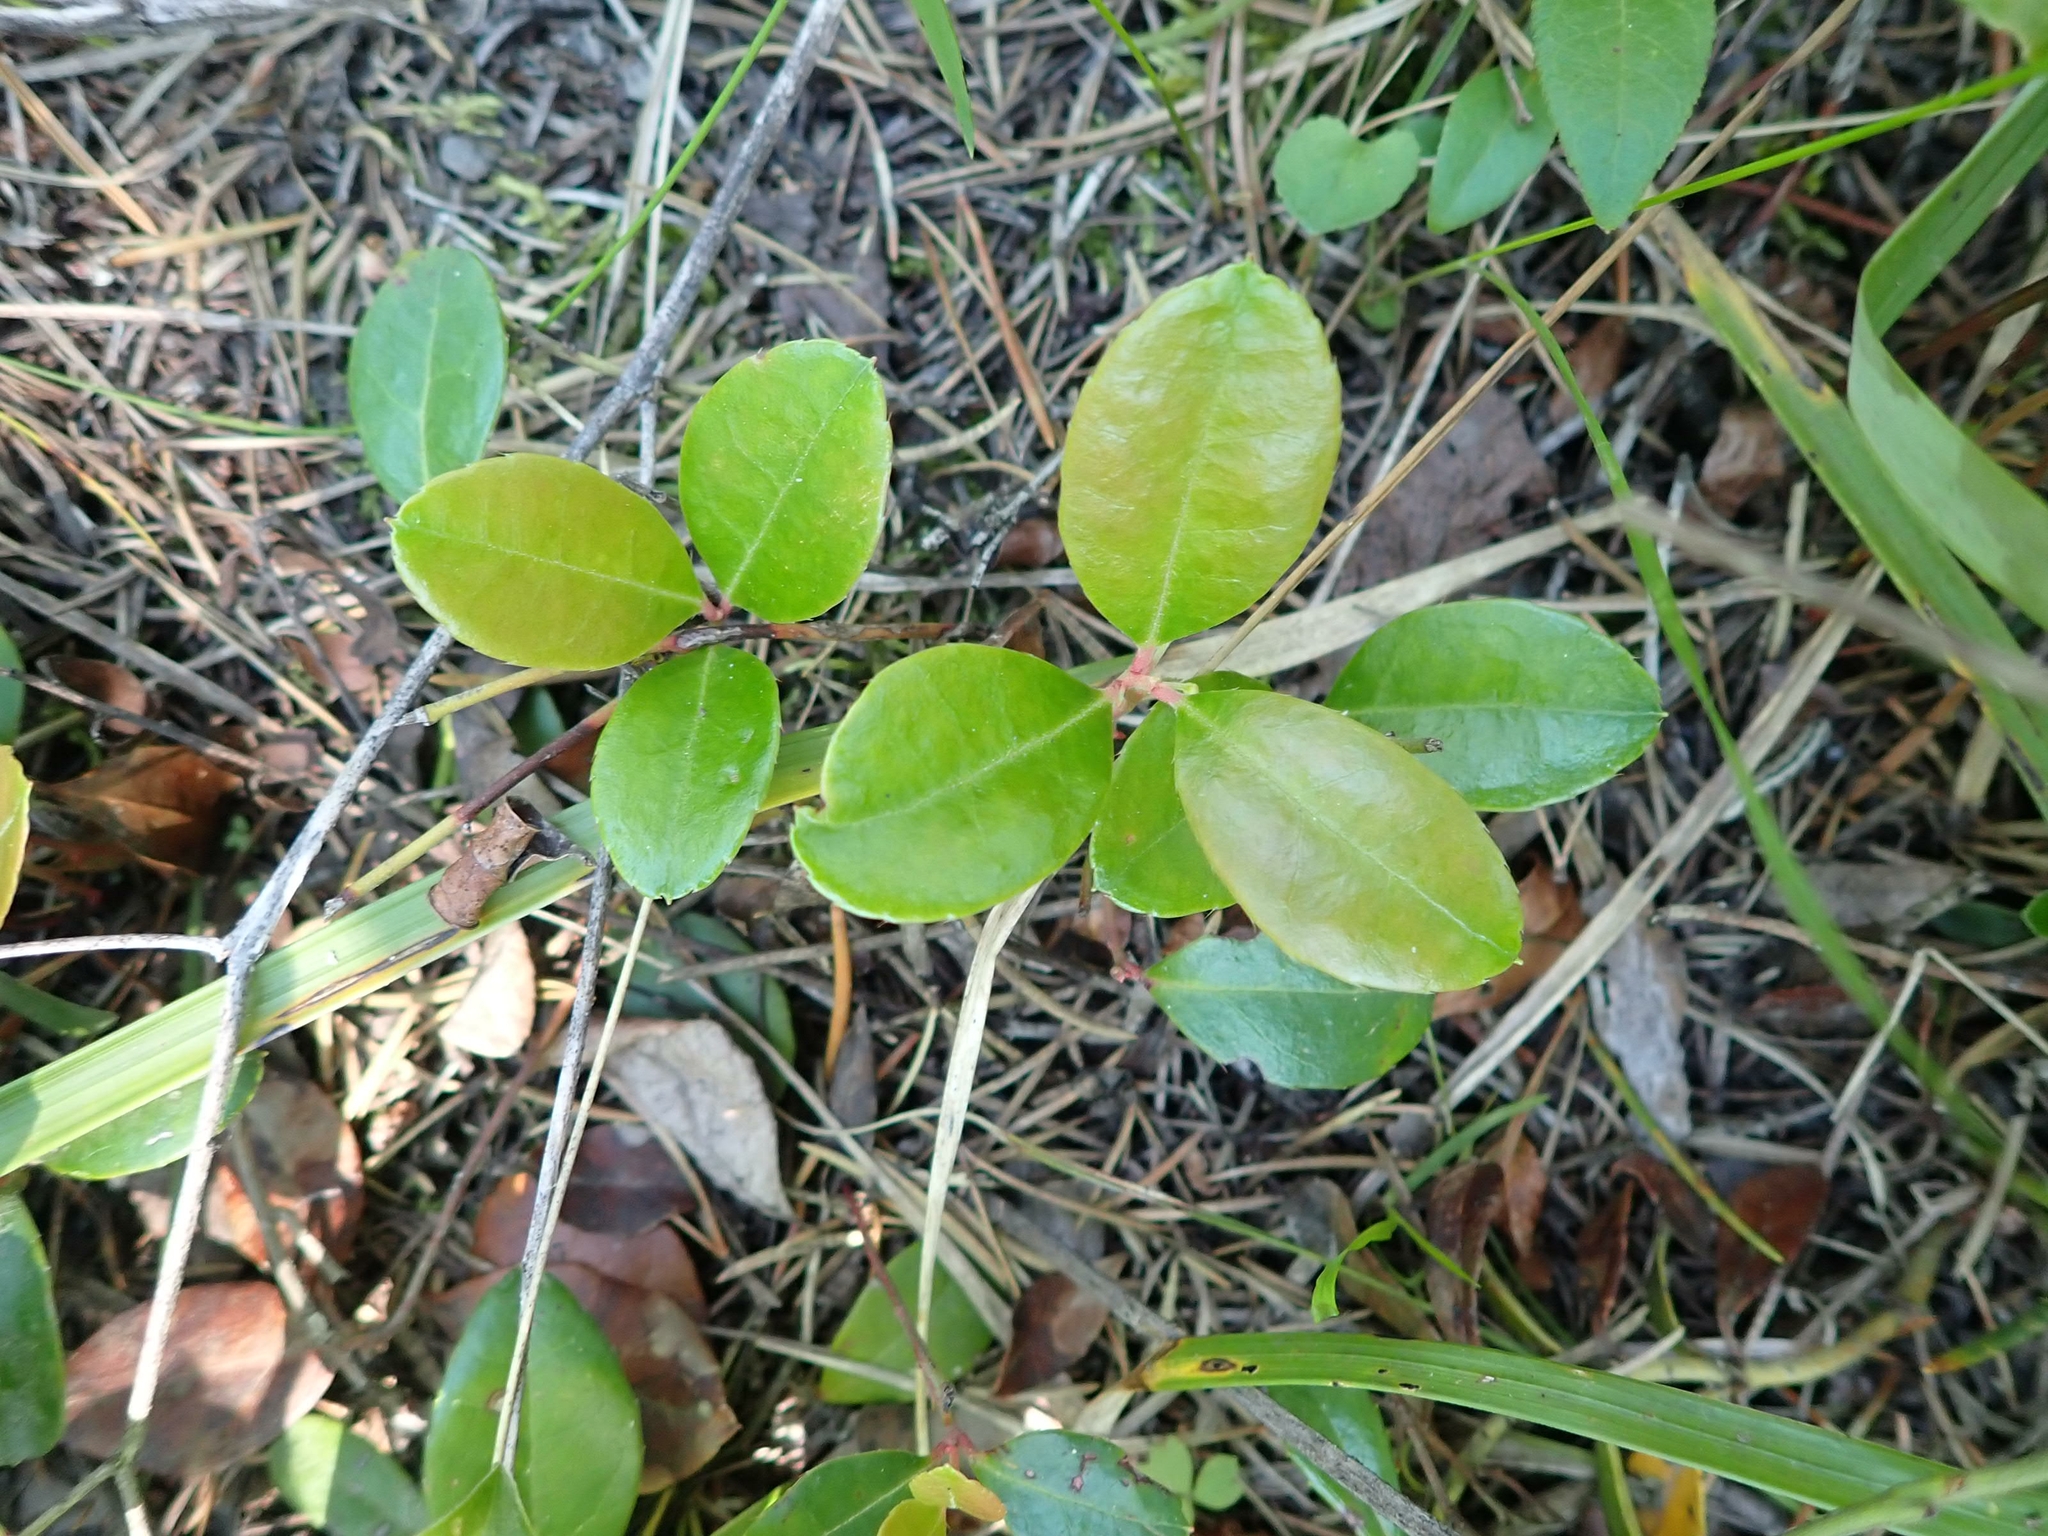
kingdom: Plantae
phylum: Tracheophyta
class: Magnoliopsida
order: Ericales
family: Ericaceae
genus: Gaultheria
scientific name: Gaultheria procumbens
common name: Checkerberry
